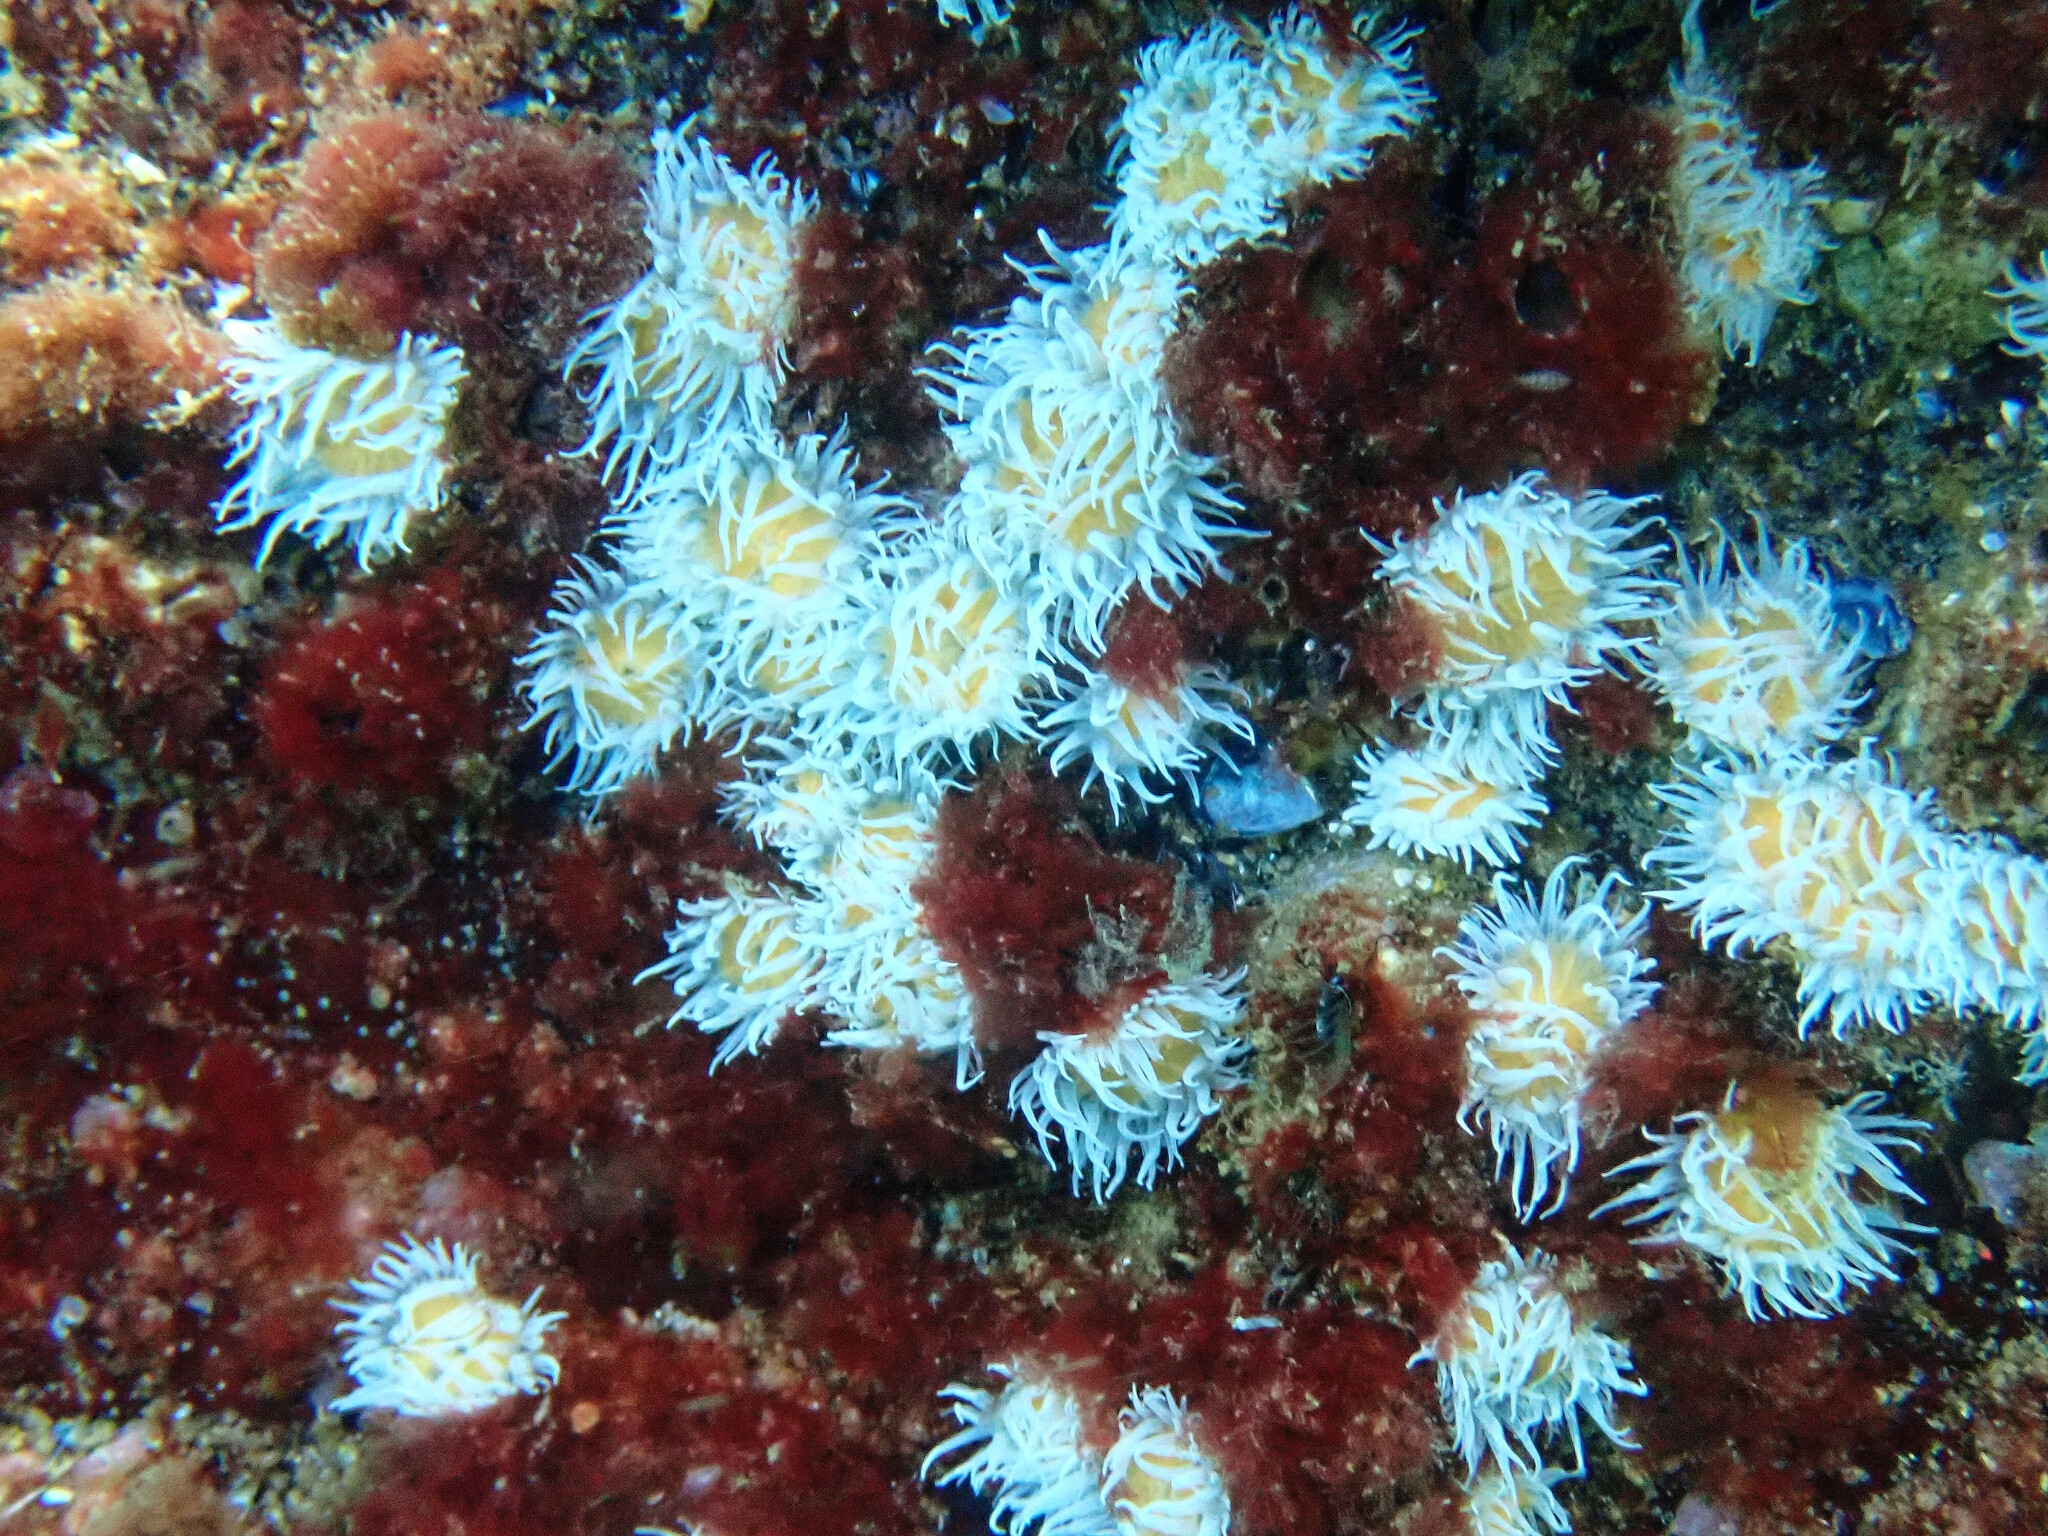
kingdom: Animalia
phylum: Cnidaria
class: Anthozoa
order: Actiniaria
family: Sagartiidae
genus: Actinothoe
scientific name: Actinothoe sphyrodeta
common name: Sandalled anemone
